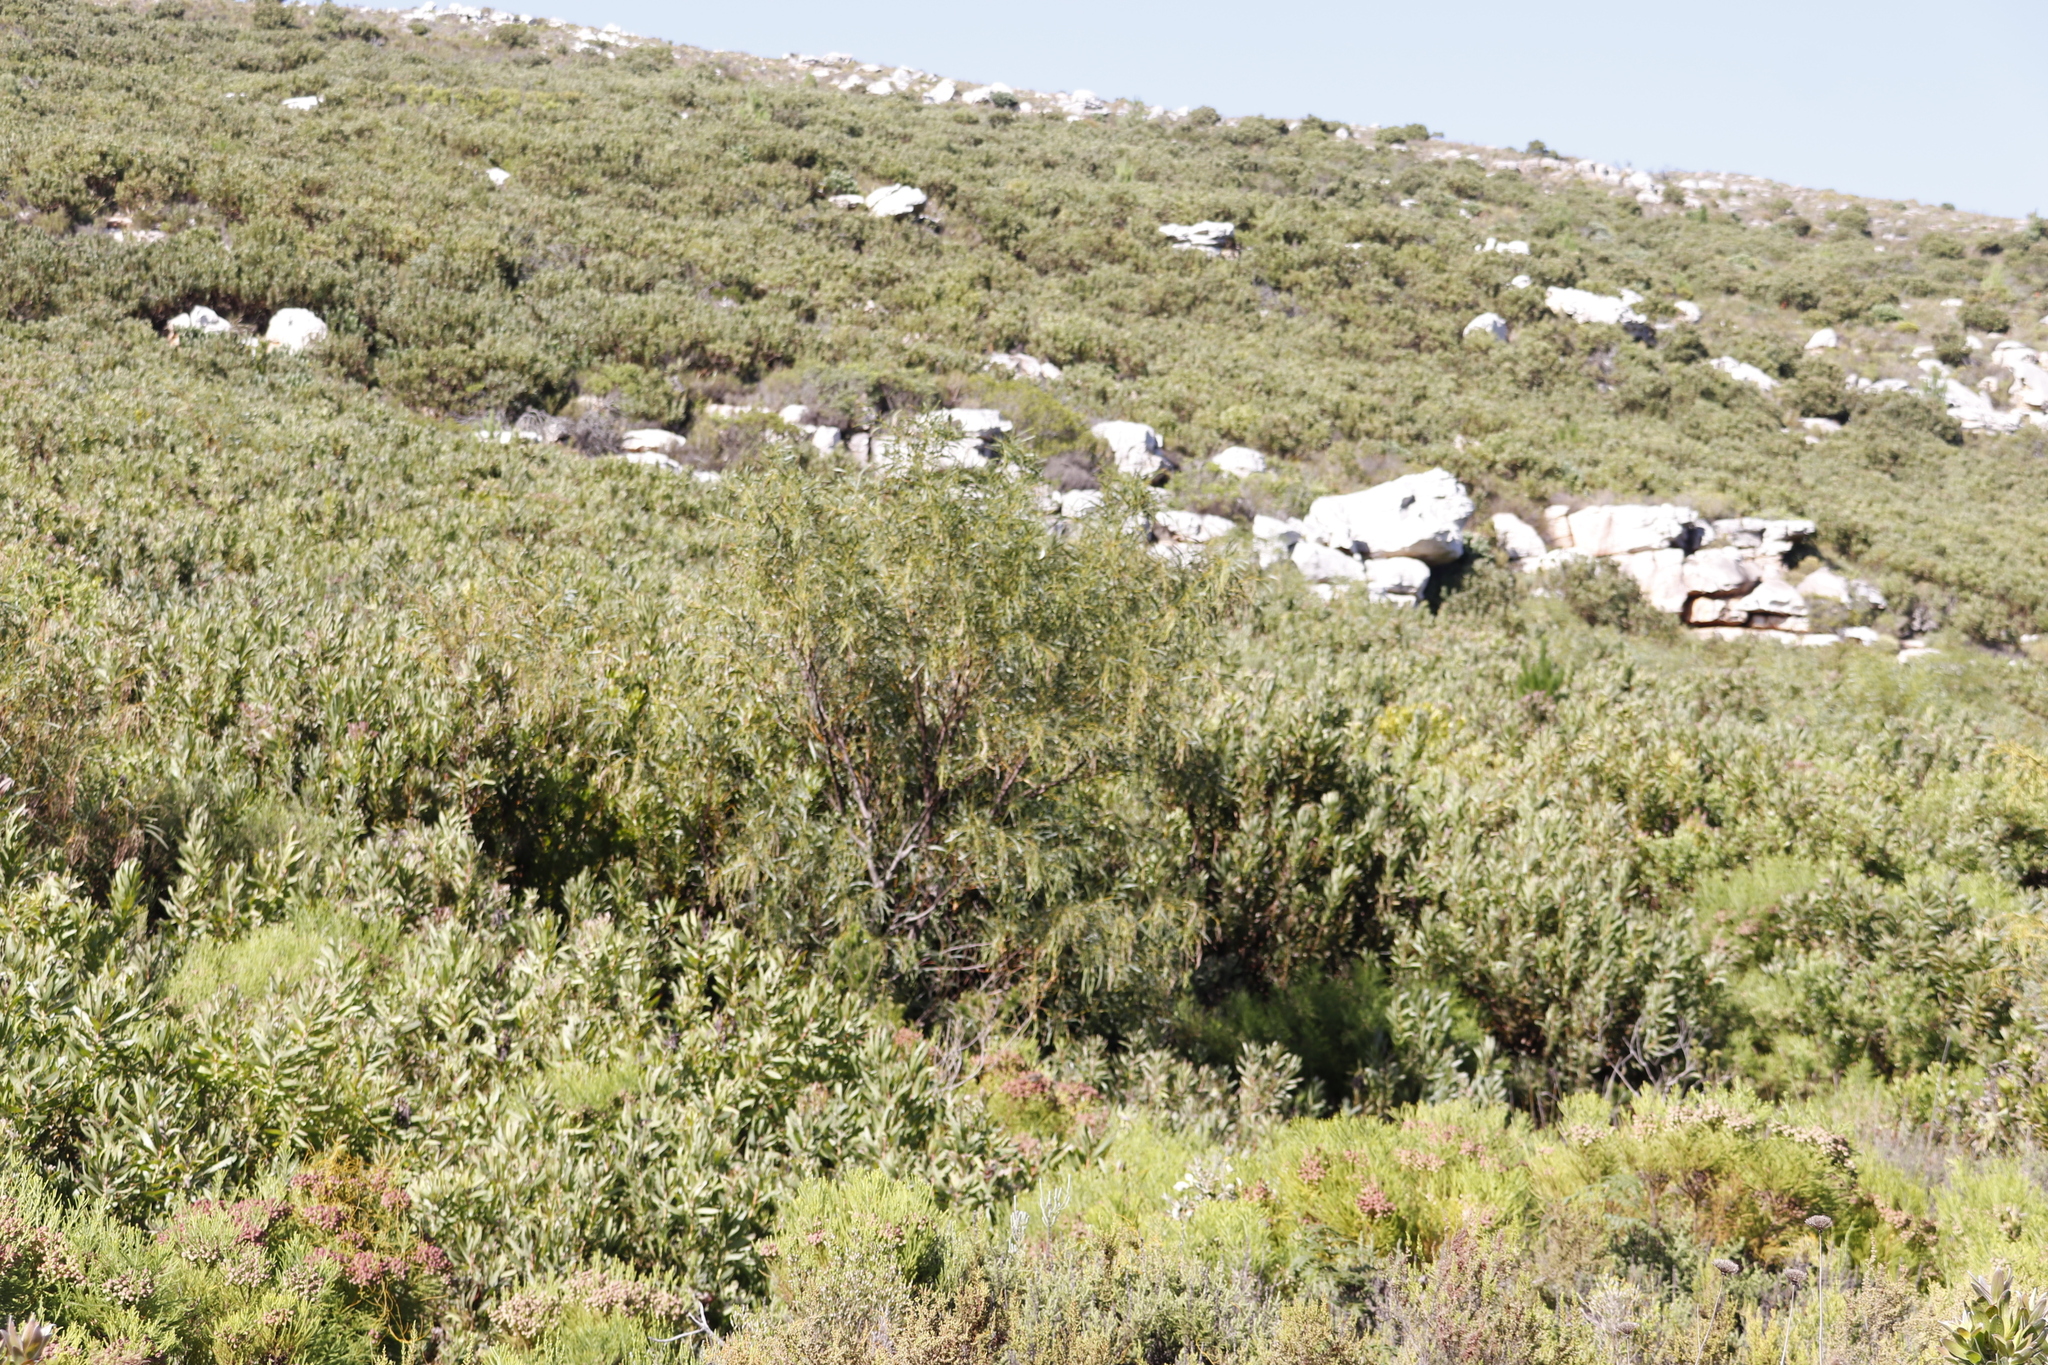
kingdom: Plantae
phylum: Tracheophyta
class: Magnoliopsida
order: Fabales
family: Fabaceae
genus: Acacia
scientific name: Acacia saligna
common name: Orange wattle
